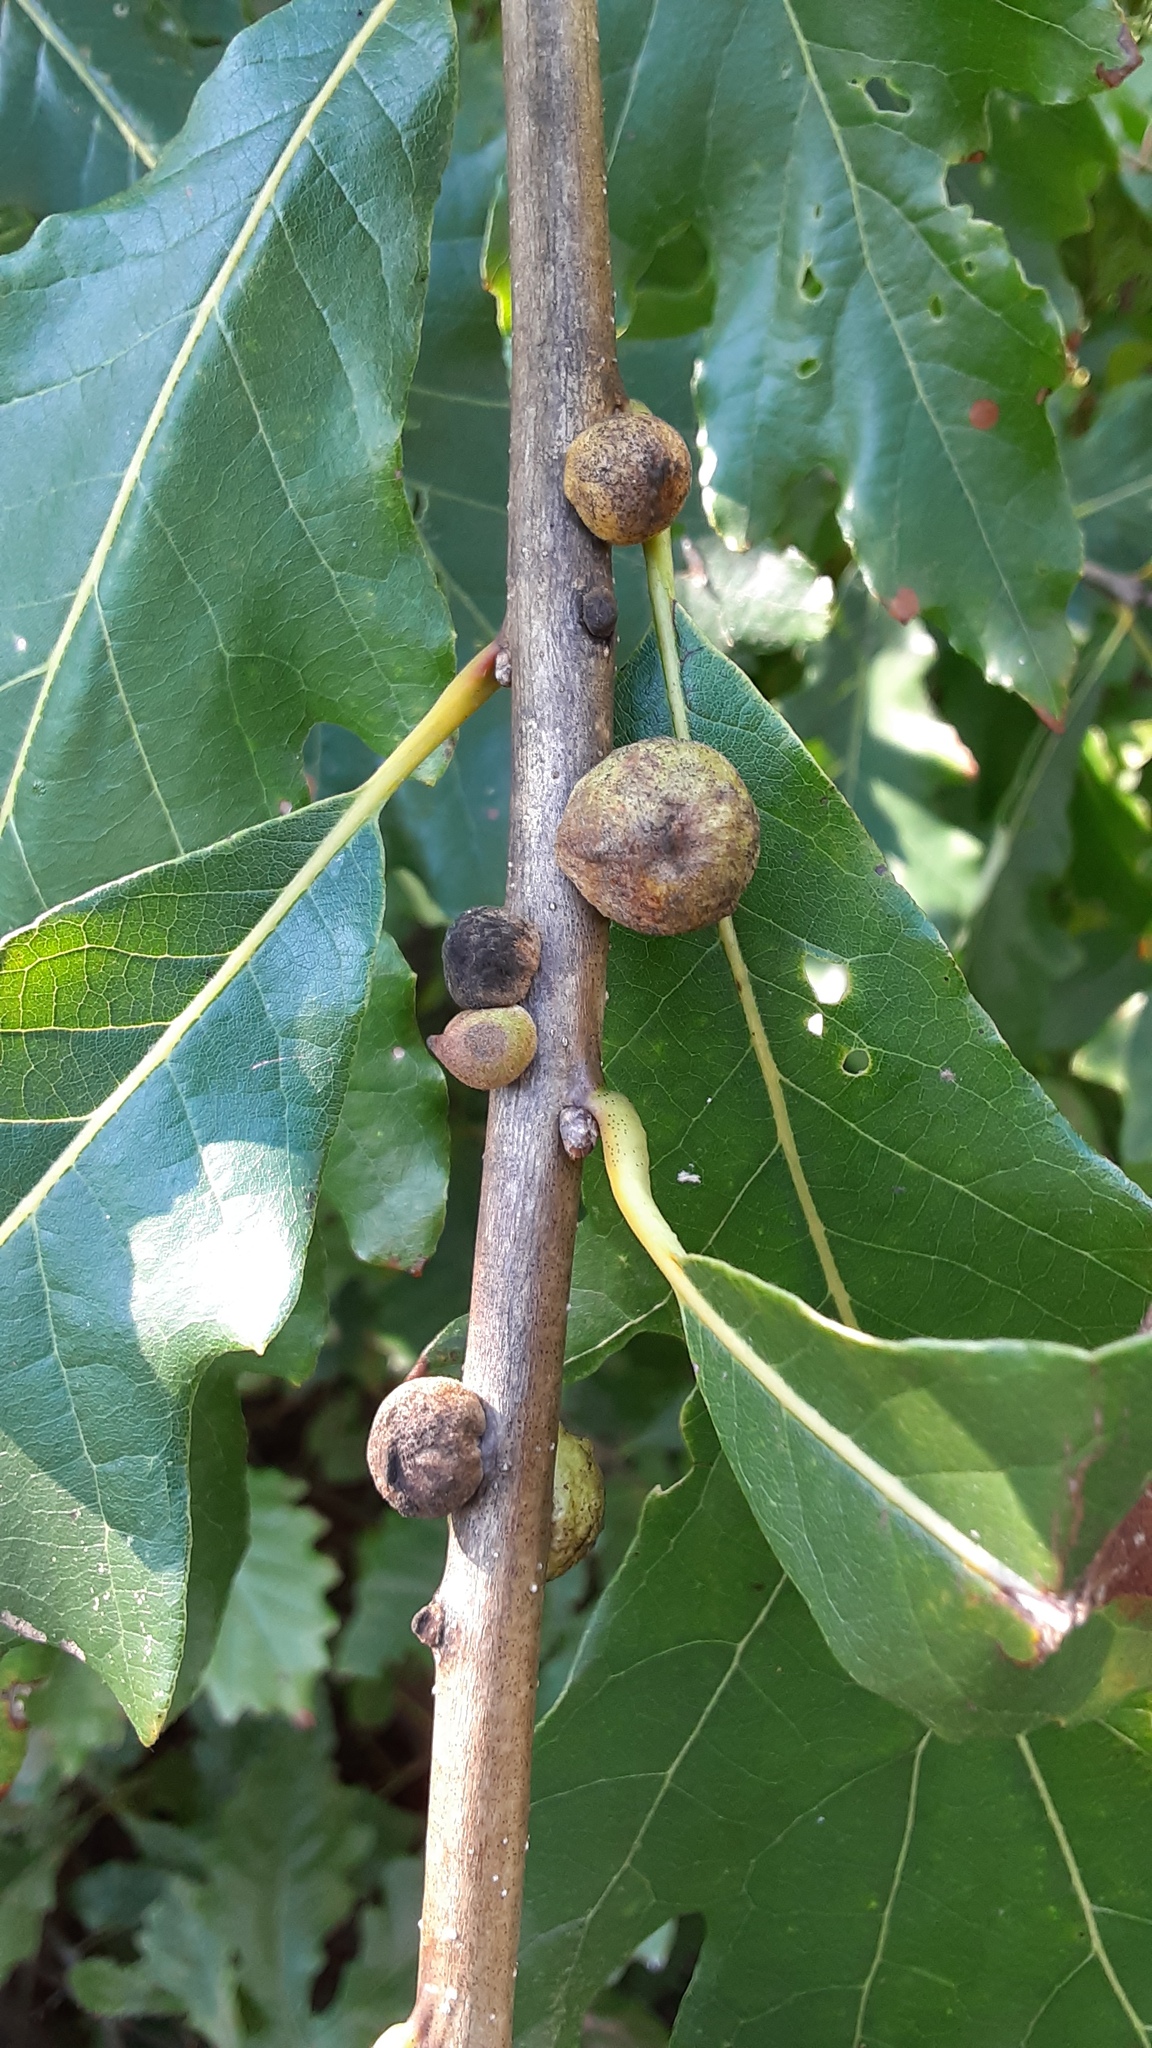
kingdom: Animalia
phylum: Arthropoda
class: Insecta
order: Hymenoptera
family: Cynipidae
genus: Disholcaspis
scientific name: Disholcaspis
